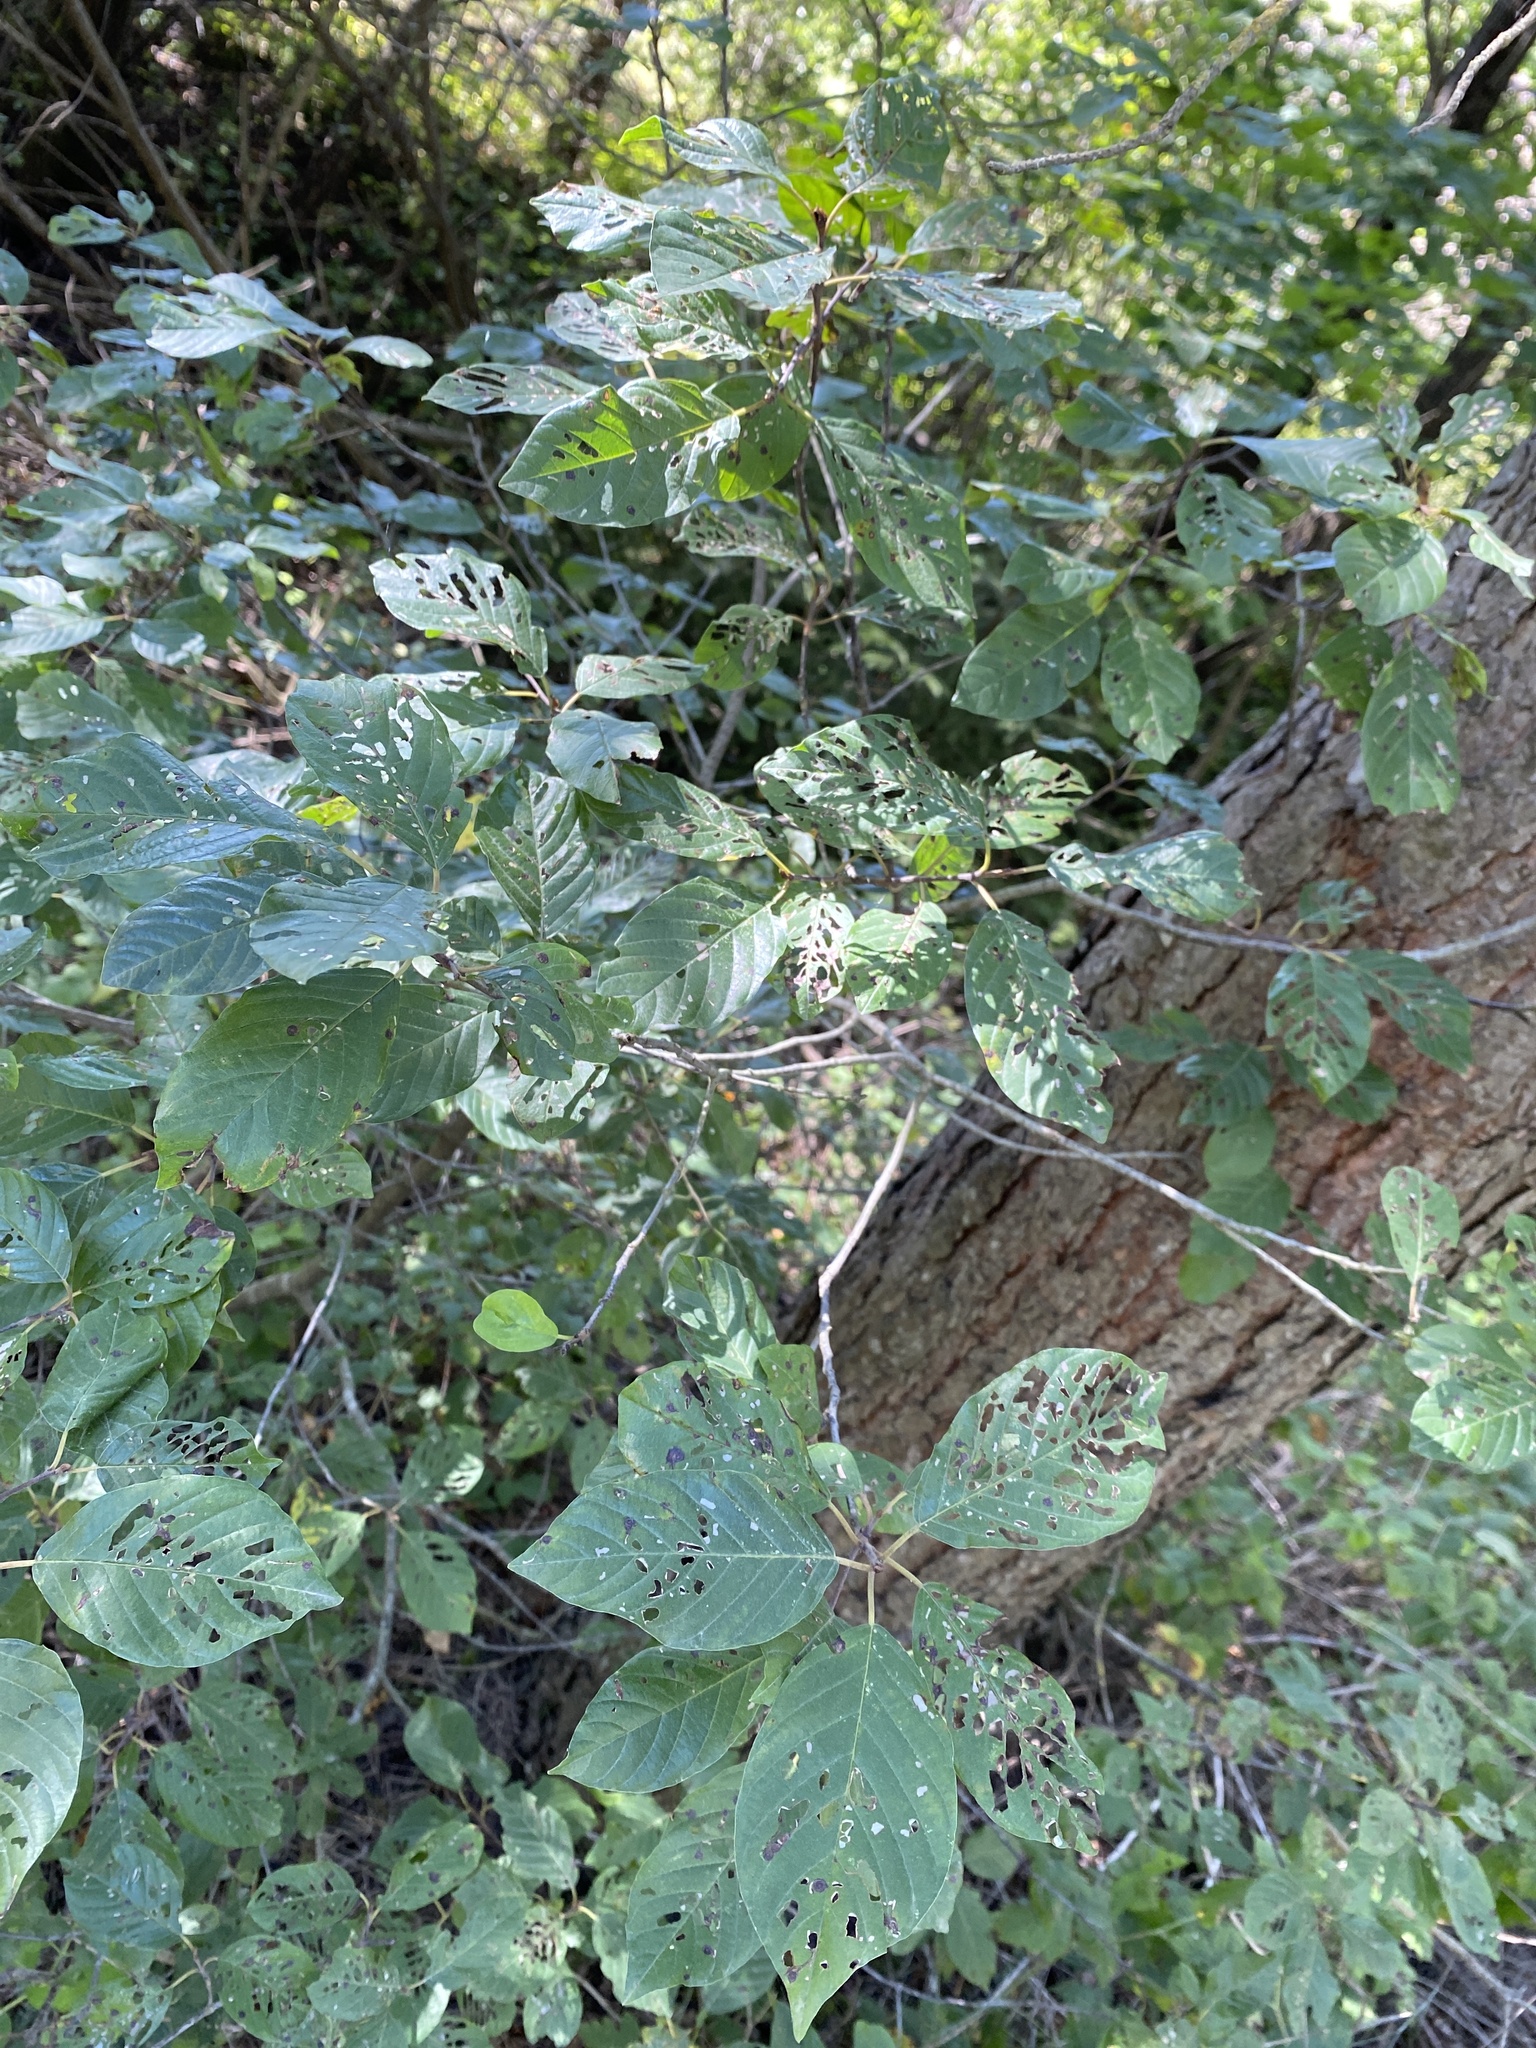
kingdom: Plantae
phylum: Tracheophyta
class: Magnoliopsida
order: Rosales
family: Rhamnaceae
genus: Frangula
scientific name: Frangula alnus
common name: Alder buckthorn
